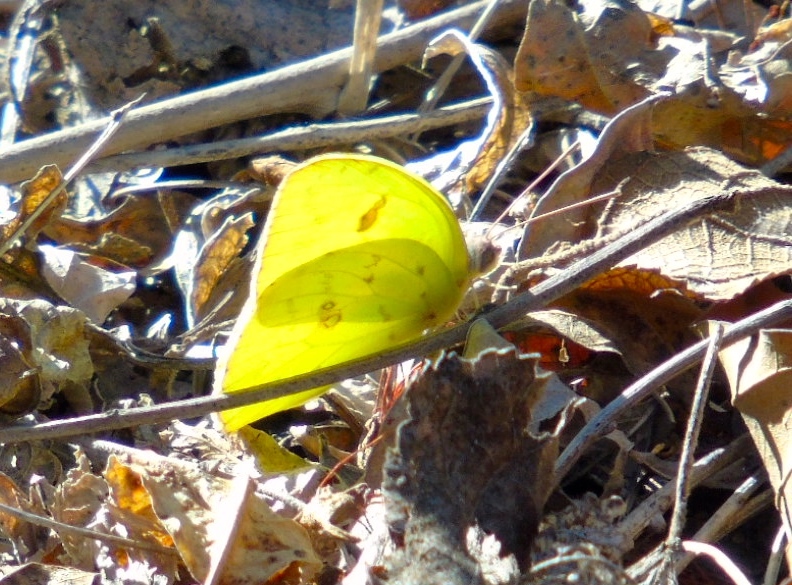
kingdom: Animalia
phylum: Arthropoda
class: Insecta
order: Lepidoptera
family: Pieridae
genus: Phoebis
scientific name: Phoebis marcellina
